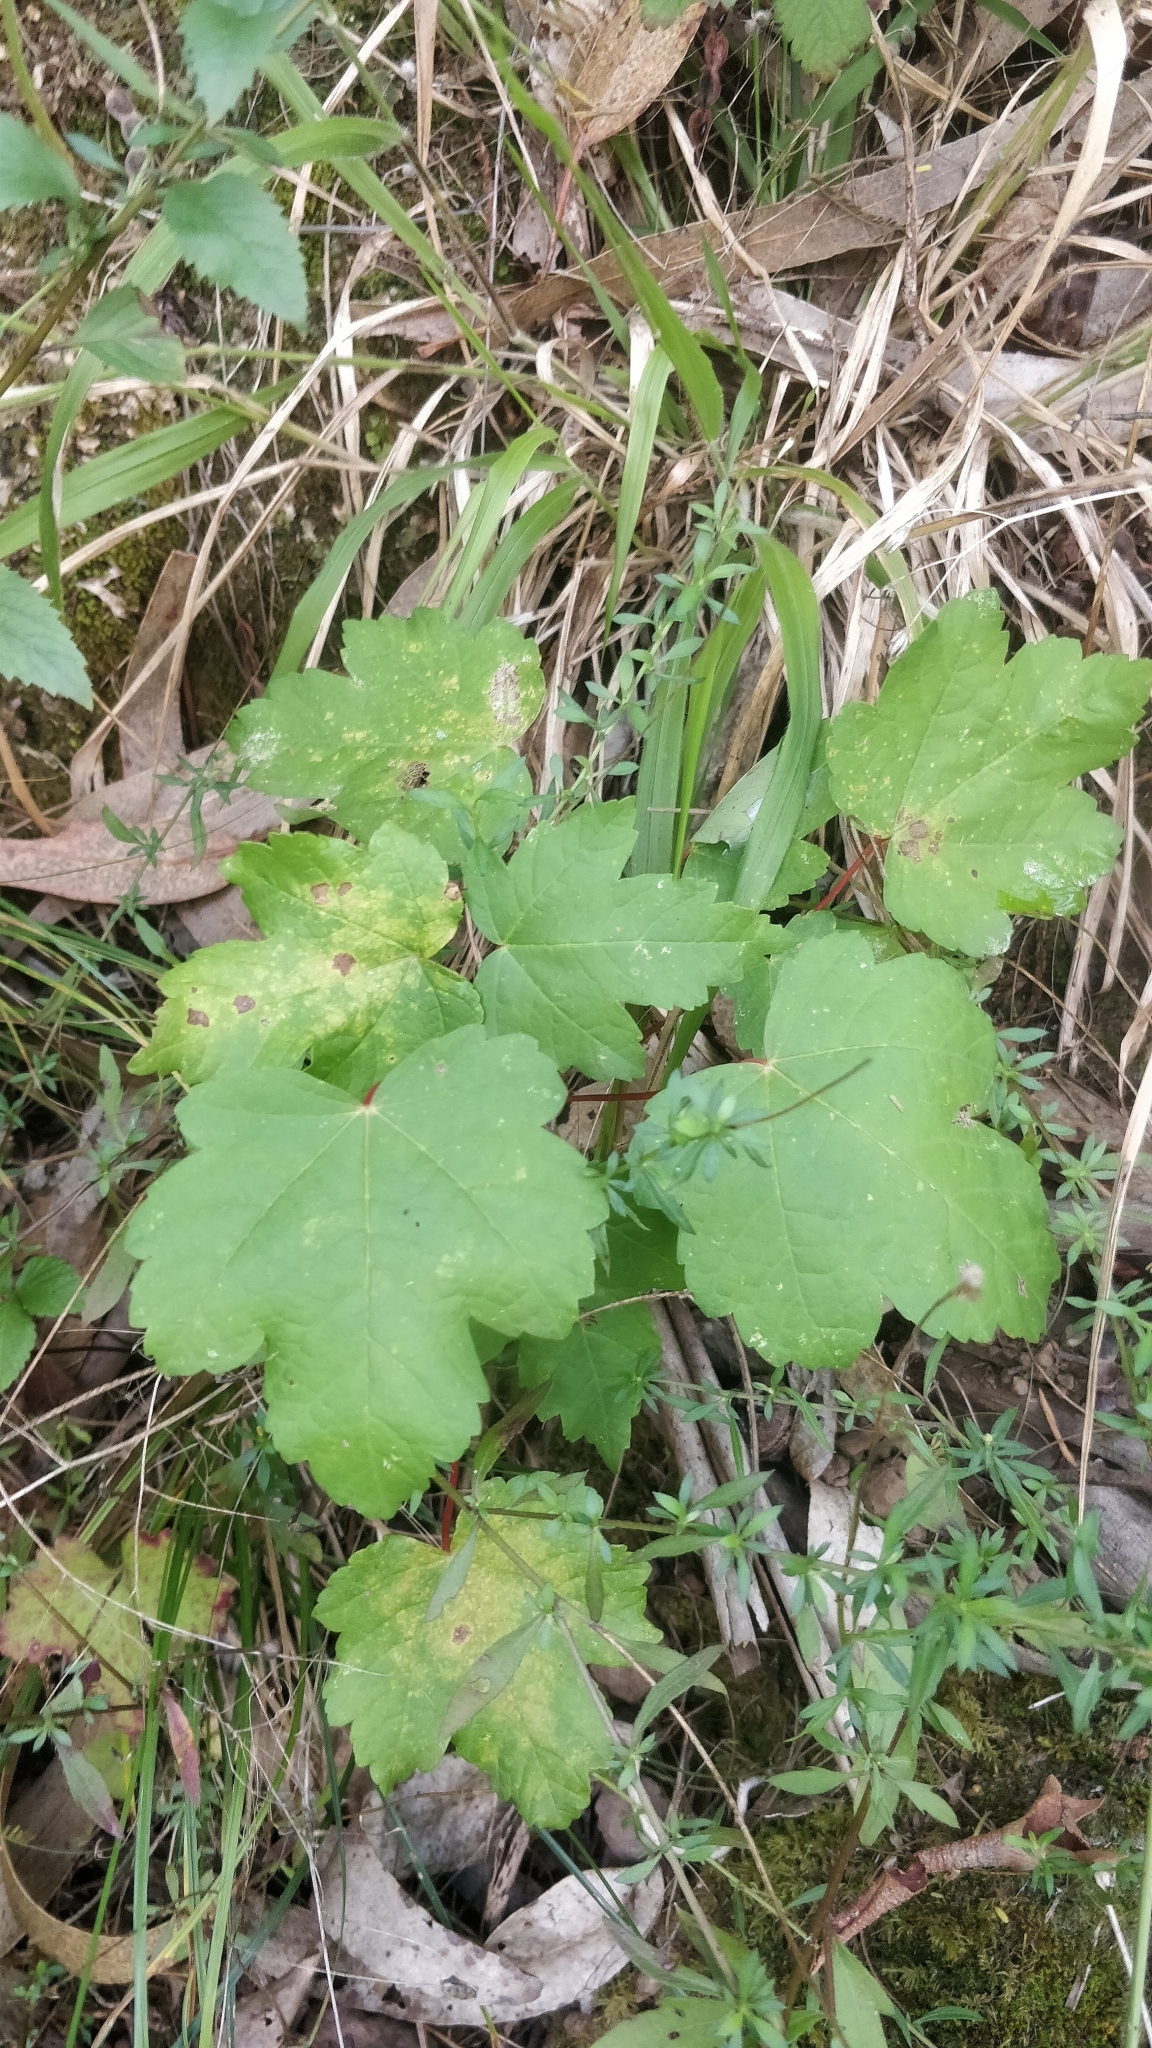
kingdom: Plantae
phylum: Tracheophyta
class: Magnoliopsida
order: Sapindales
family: Sapindaceae
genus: Acer
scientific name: Acer pseudoplatanus
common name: Sycamore
